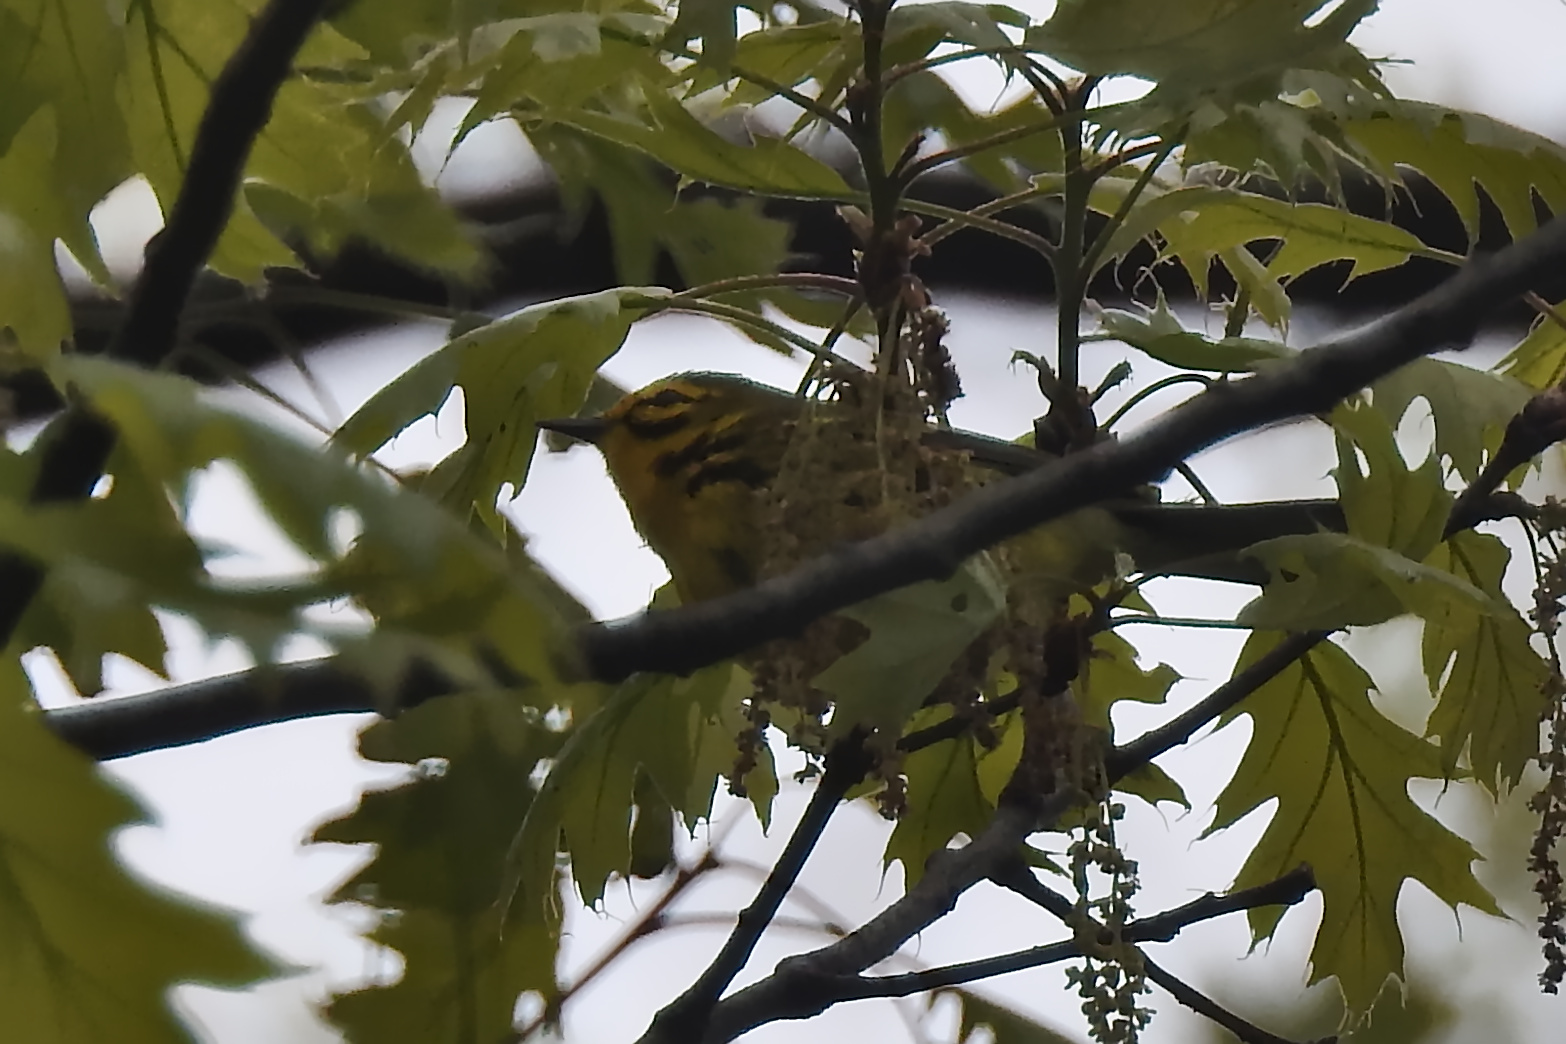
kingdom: Animalia
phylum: Chordata
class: Aves
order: Passeriformes
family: Parulidae
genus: Setophaga
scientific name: Setophaga discolor
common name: Prairie warbler
